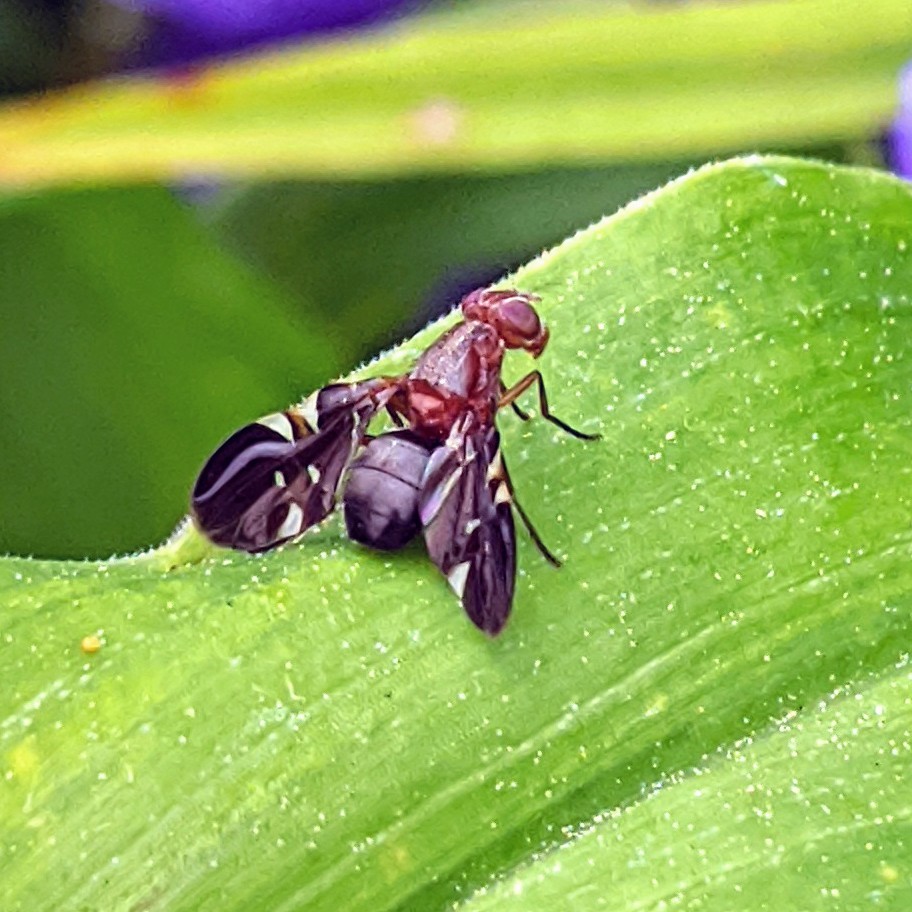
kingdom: Animalia
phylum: Arthropoda
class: Insecta
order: Diptera
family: Ulidiidae
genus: Delphinia
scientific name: Delphinia picta
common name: Common picture-winged fly
